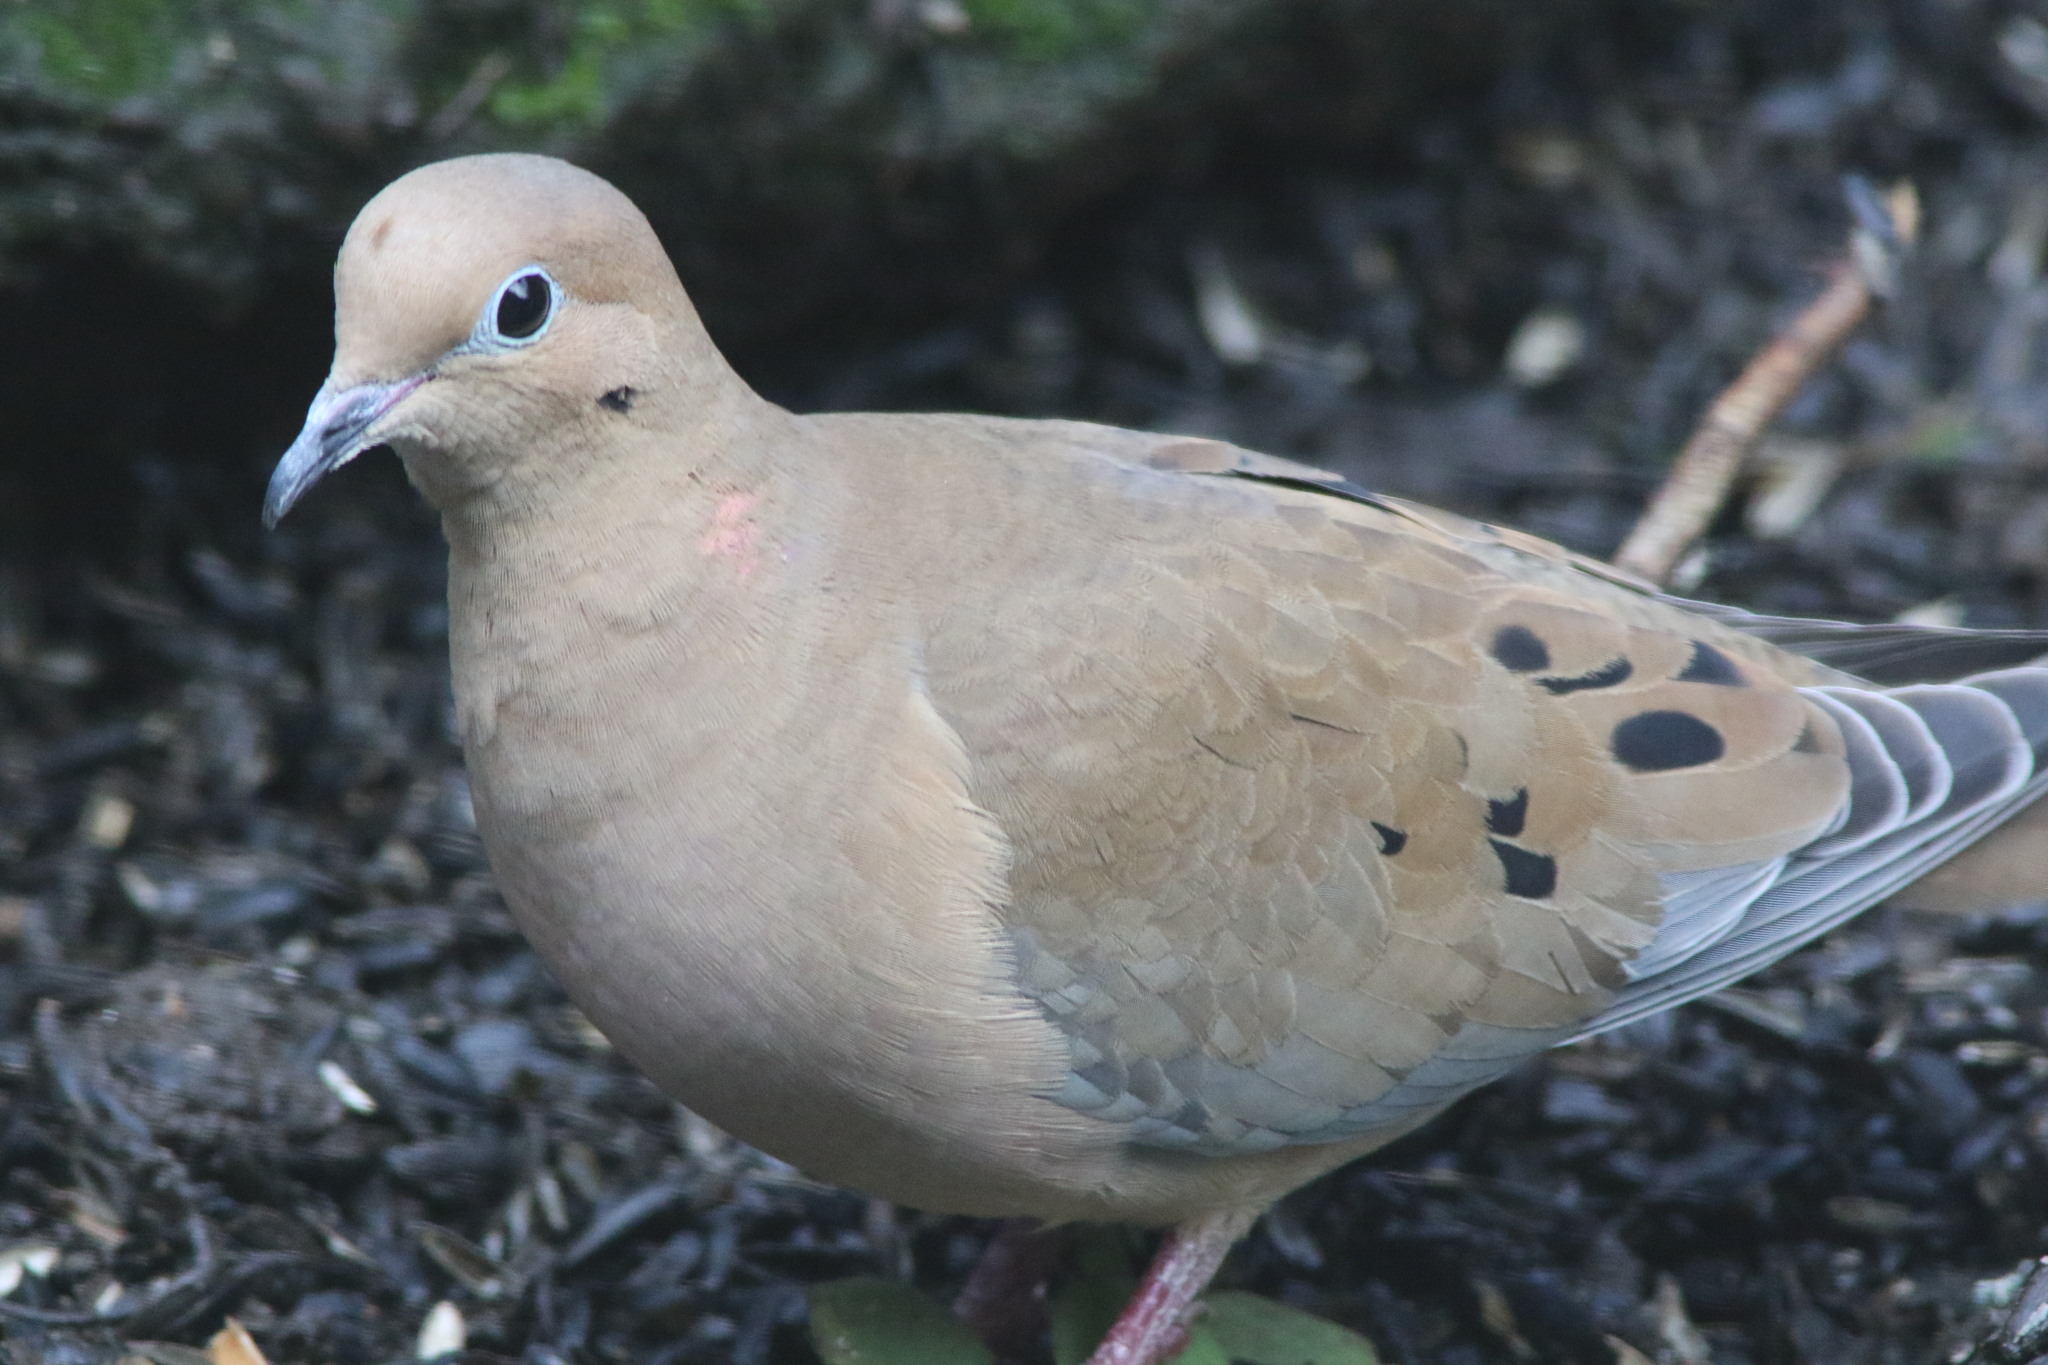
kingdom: Animalia
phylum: Chordata
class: Aves
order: Columbiformes
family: Columbidae
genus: Zenaida
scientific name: Zenaida macroura
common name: Mourning dove
